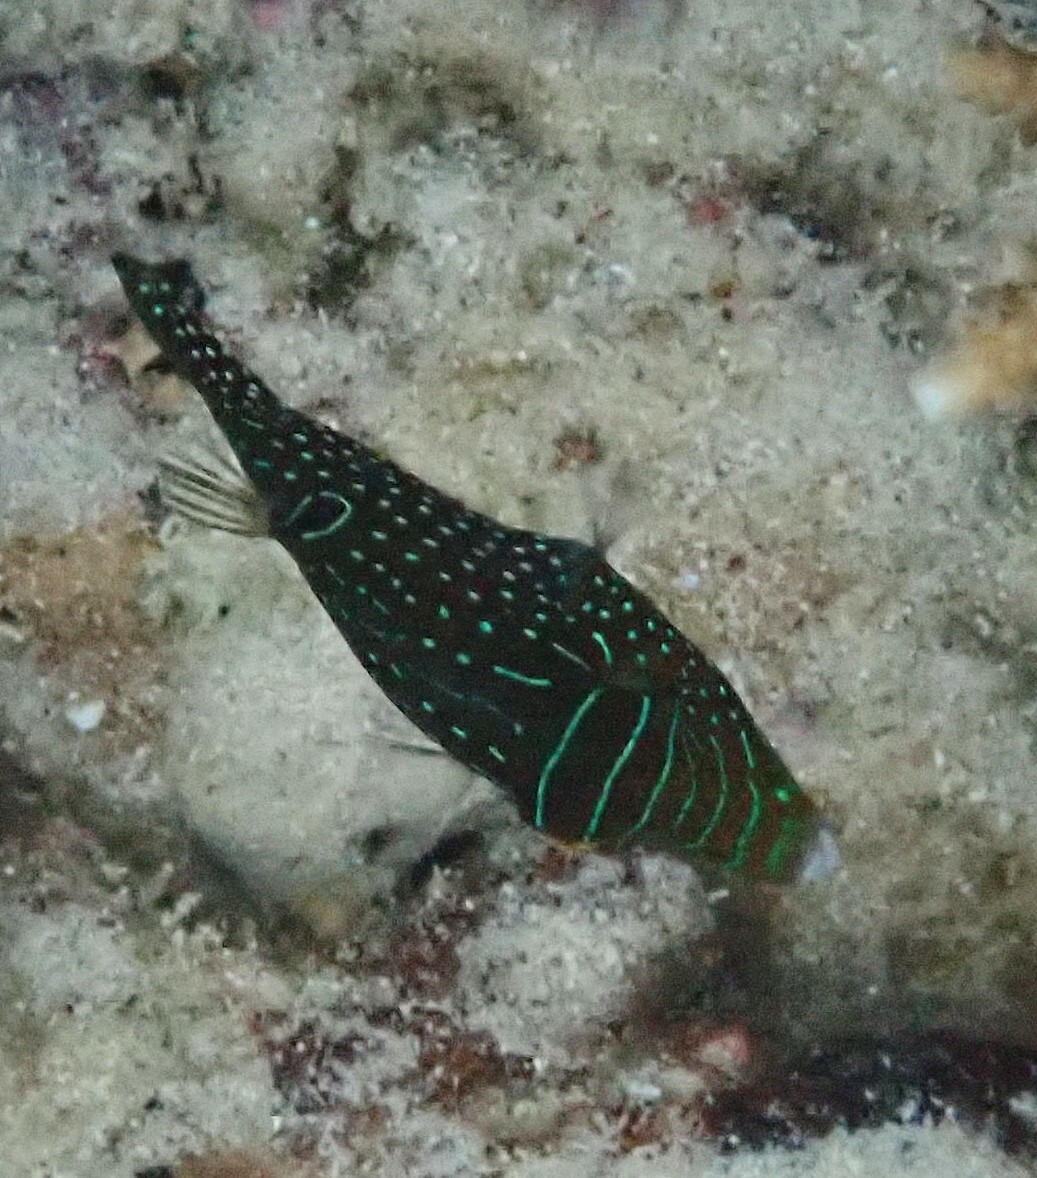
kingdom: Animalia
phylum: Chordata
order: Tetraodontiformes
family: Tetraodontidae
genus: Canthigaster
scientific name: Canthigaster papua
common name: False-eyed pufferfish
